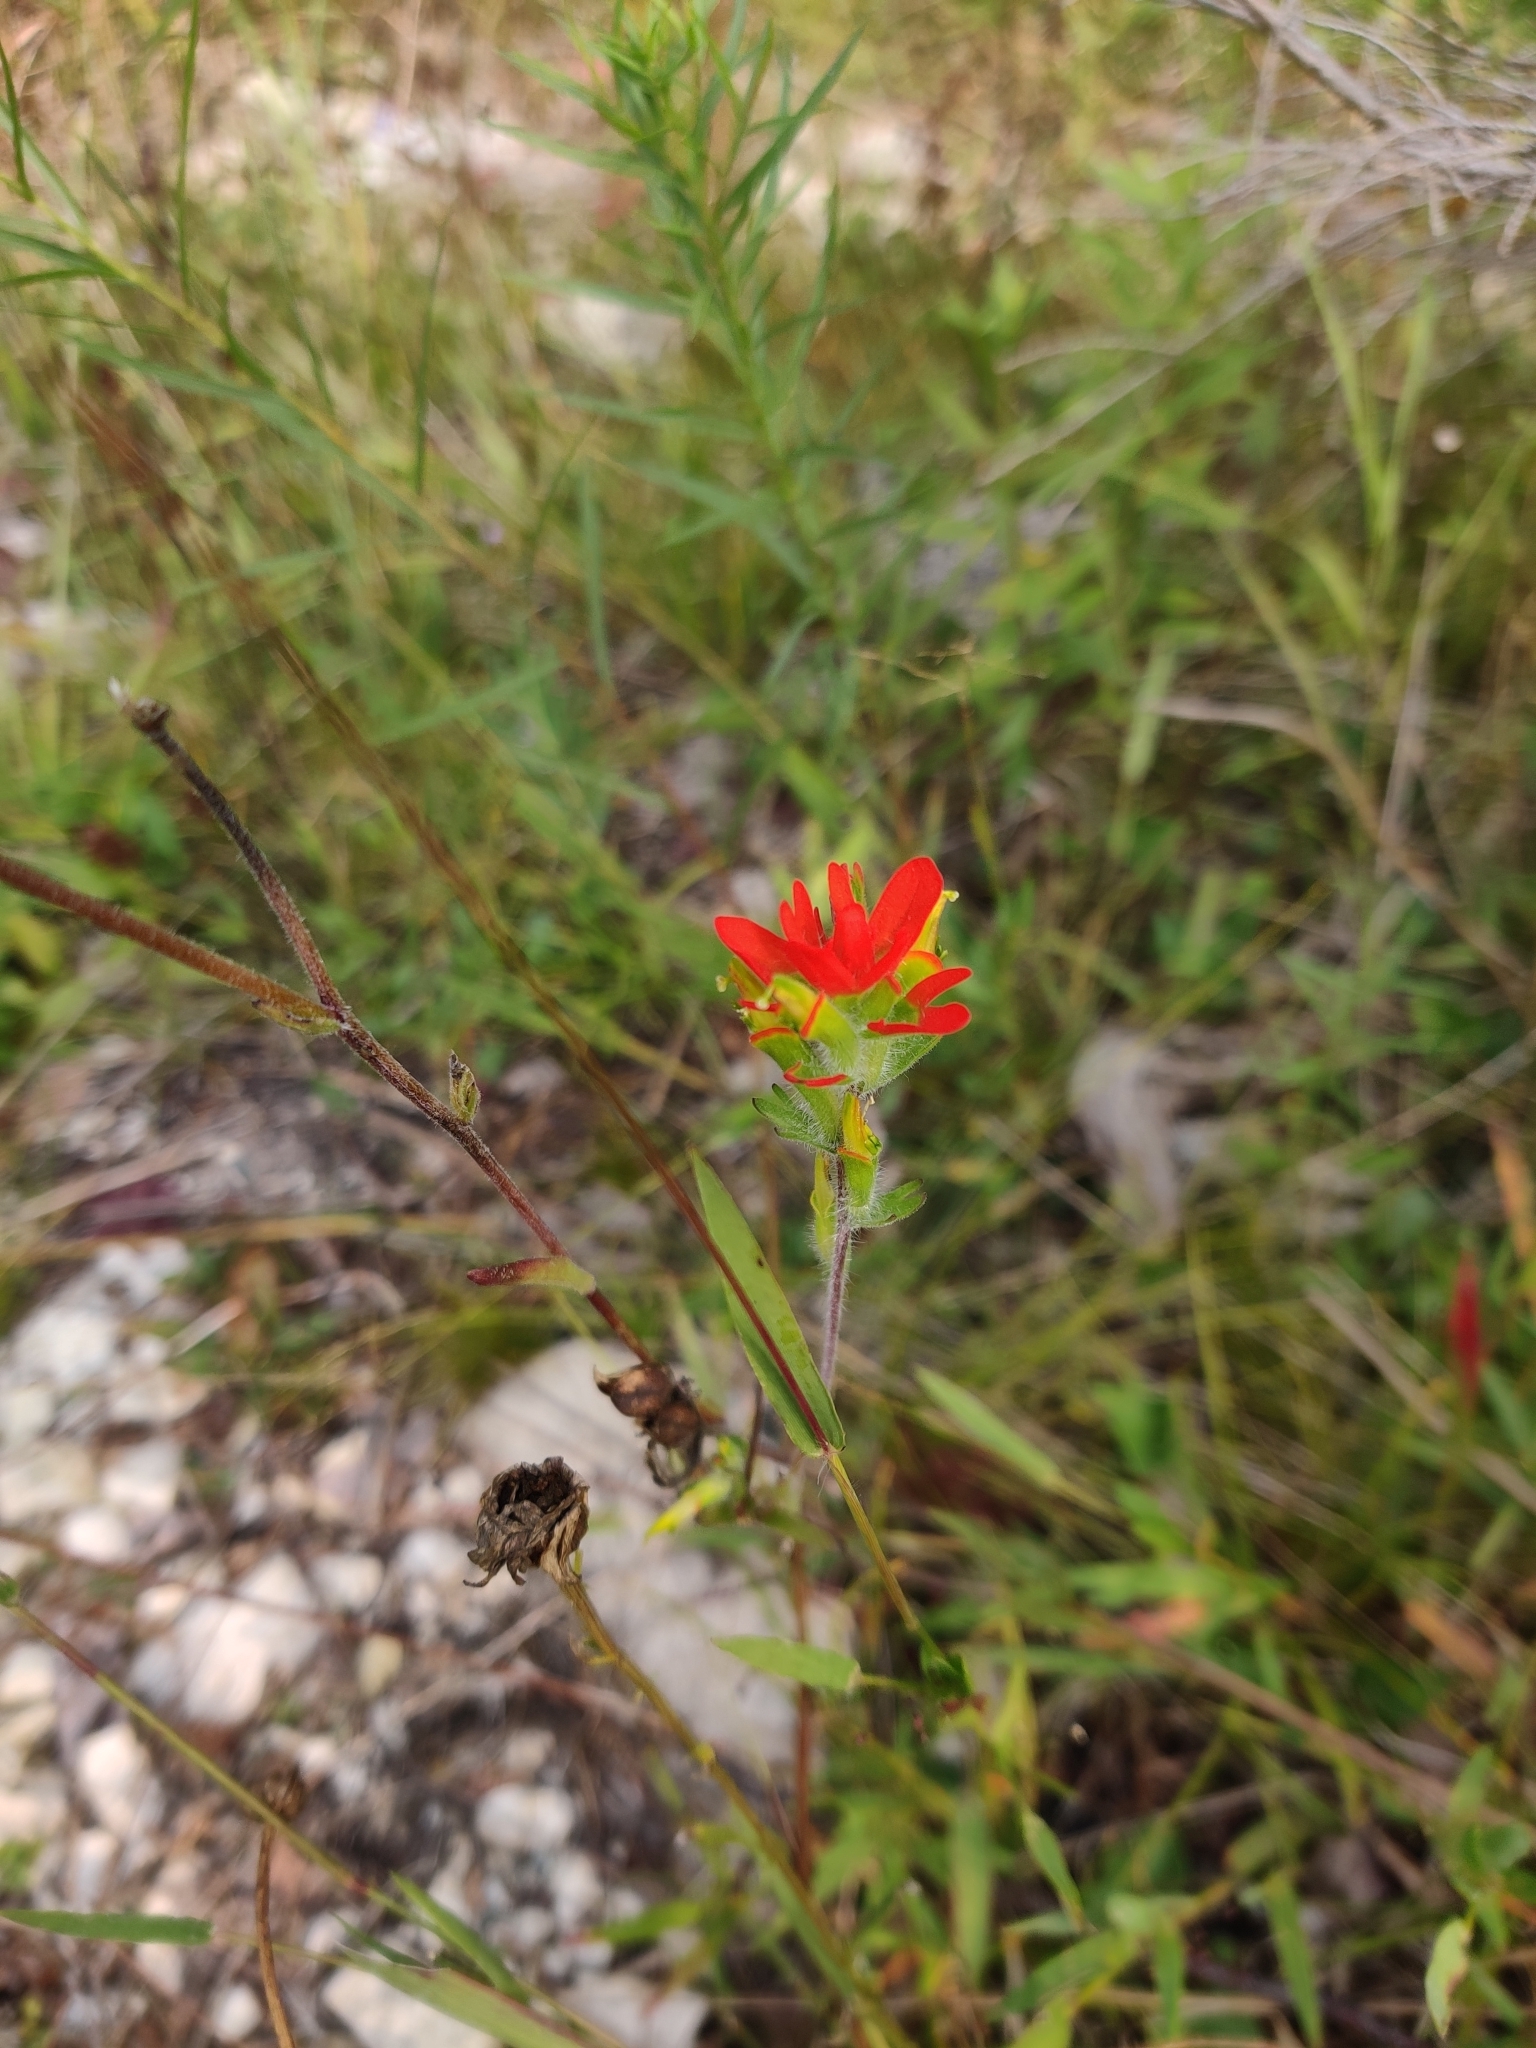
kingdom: Plantae
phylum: Tracheophyta
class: Magnoliopsida
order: Lamiales
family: Orobanchaceae
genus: Castilleja
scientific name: Castilleja coccinea
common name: Scarlet paintbrush
